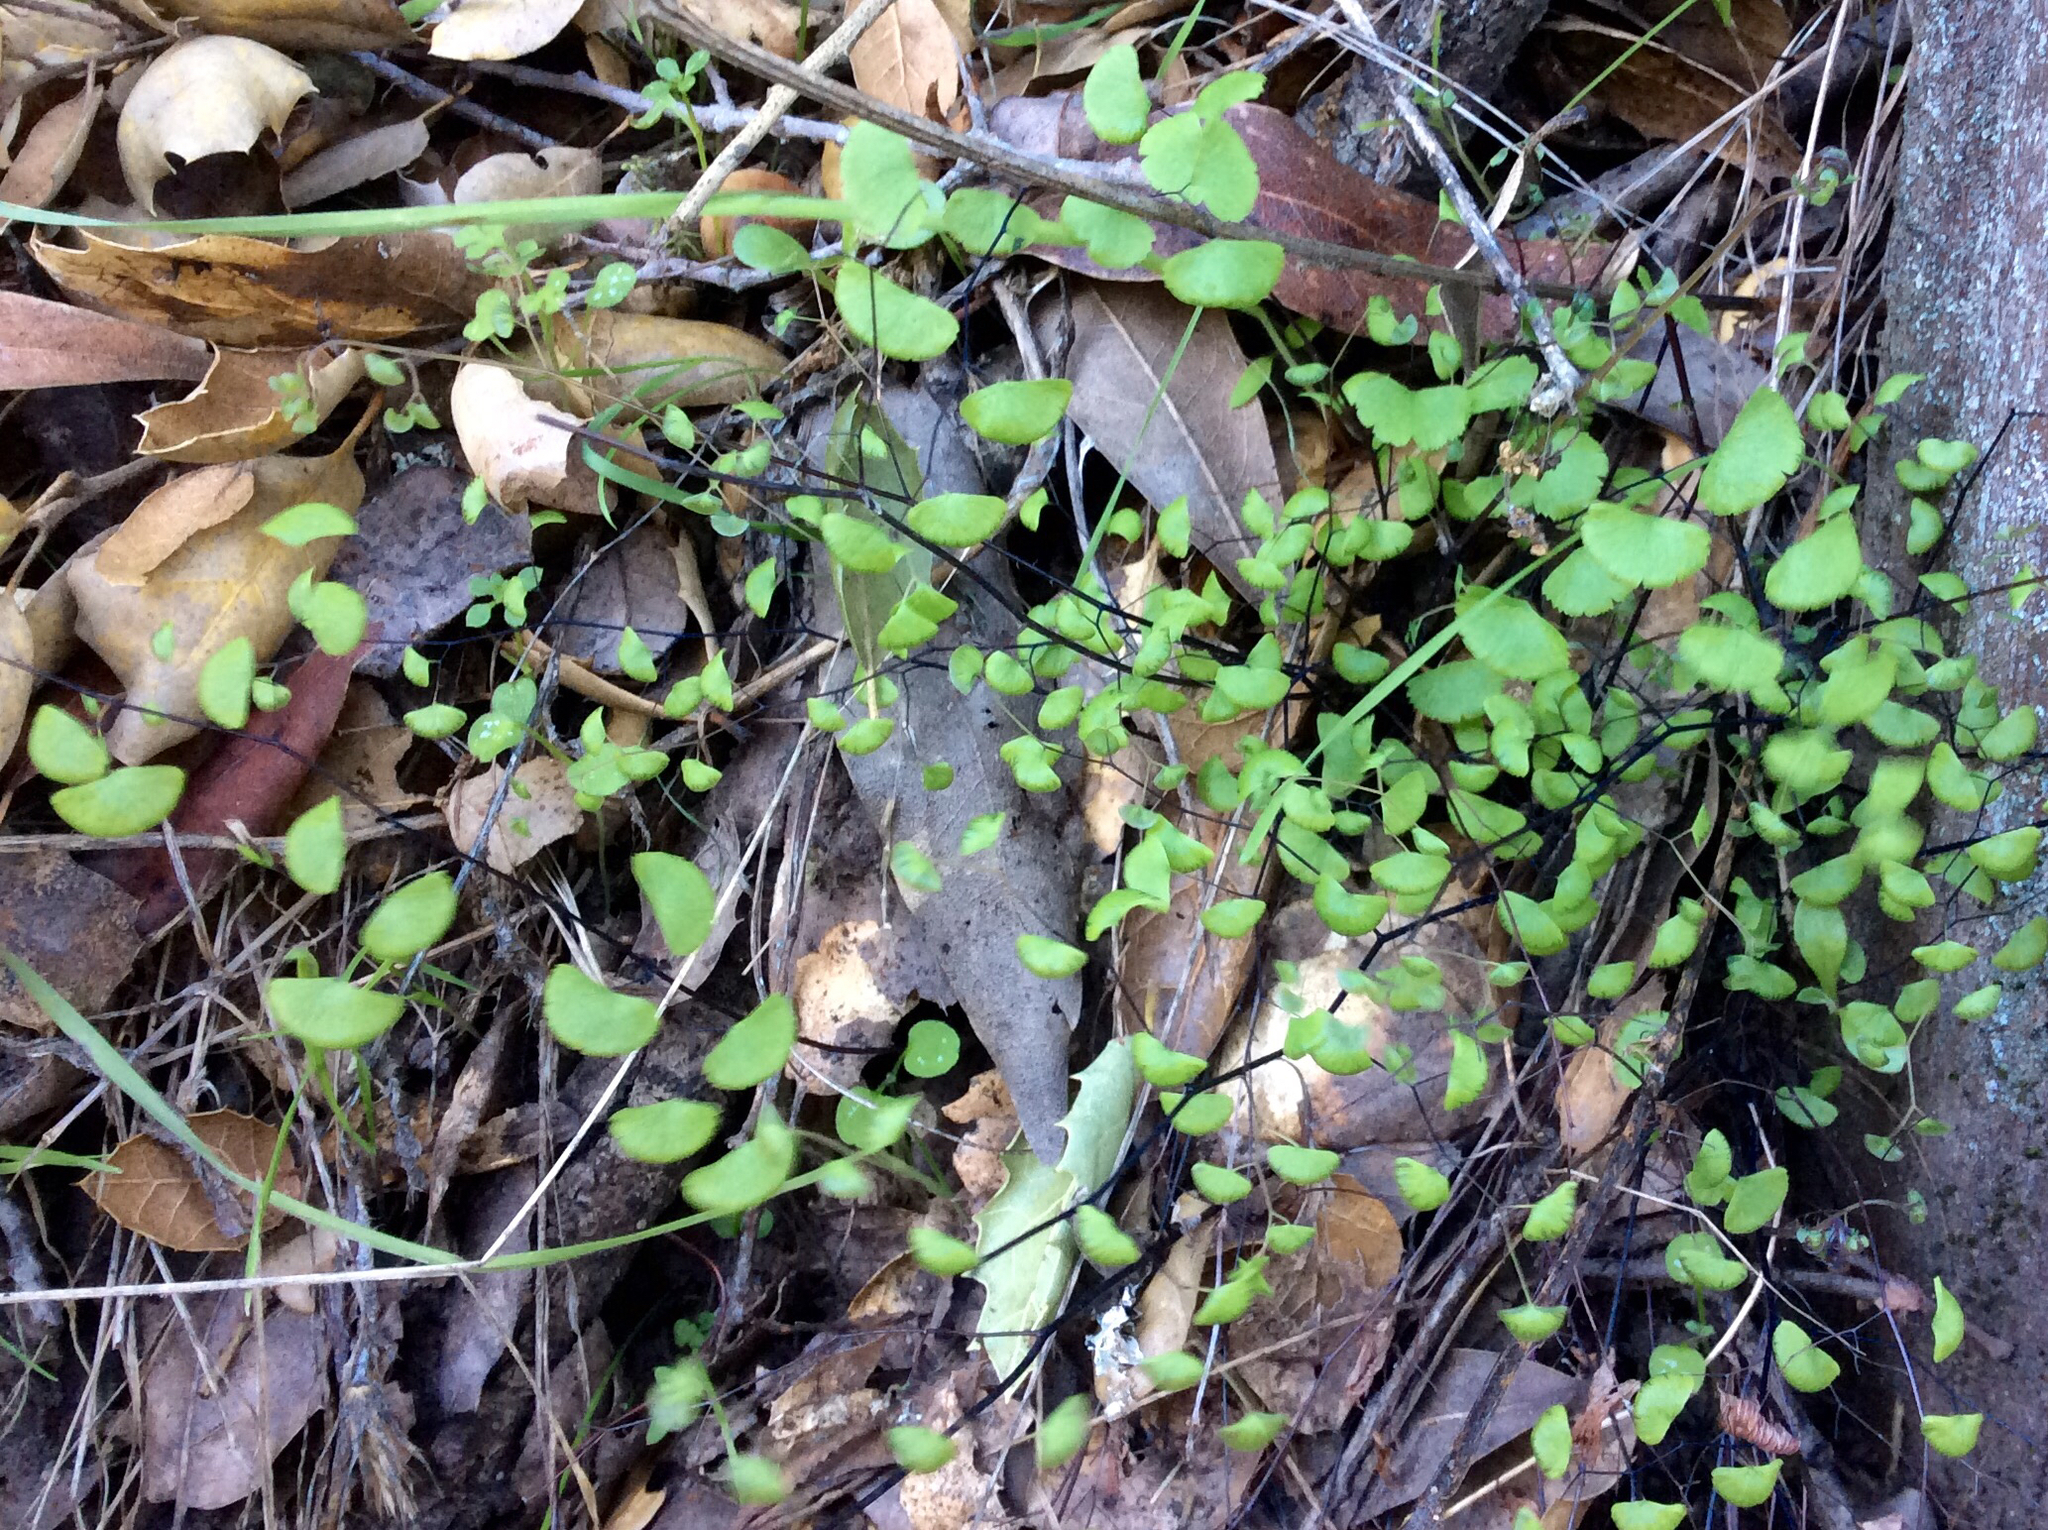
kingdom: Plantae
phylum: Tracheophyta
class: Polypodiopsida
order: Polypodiales
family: Pteridaceae
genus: Adiantum
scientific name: Adiantum jordanii
